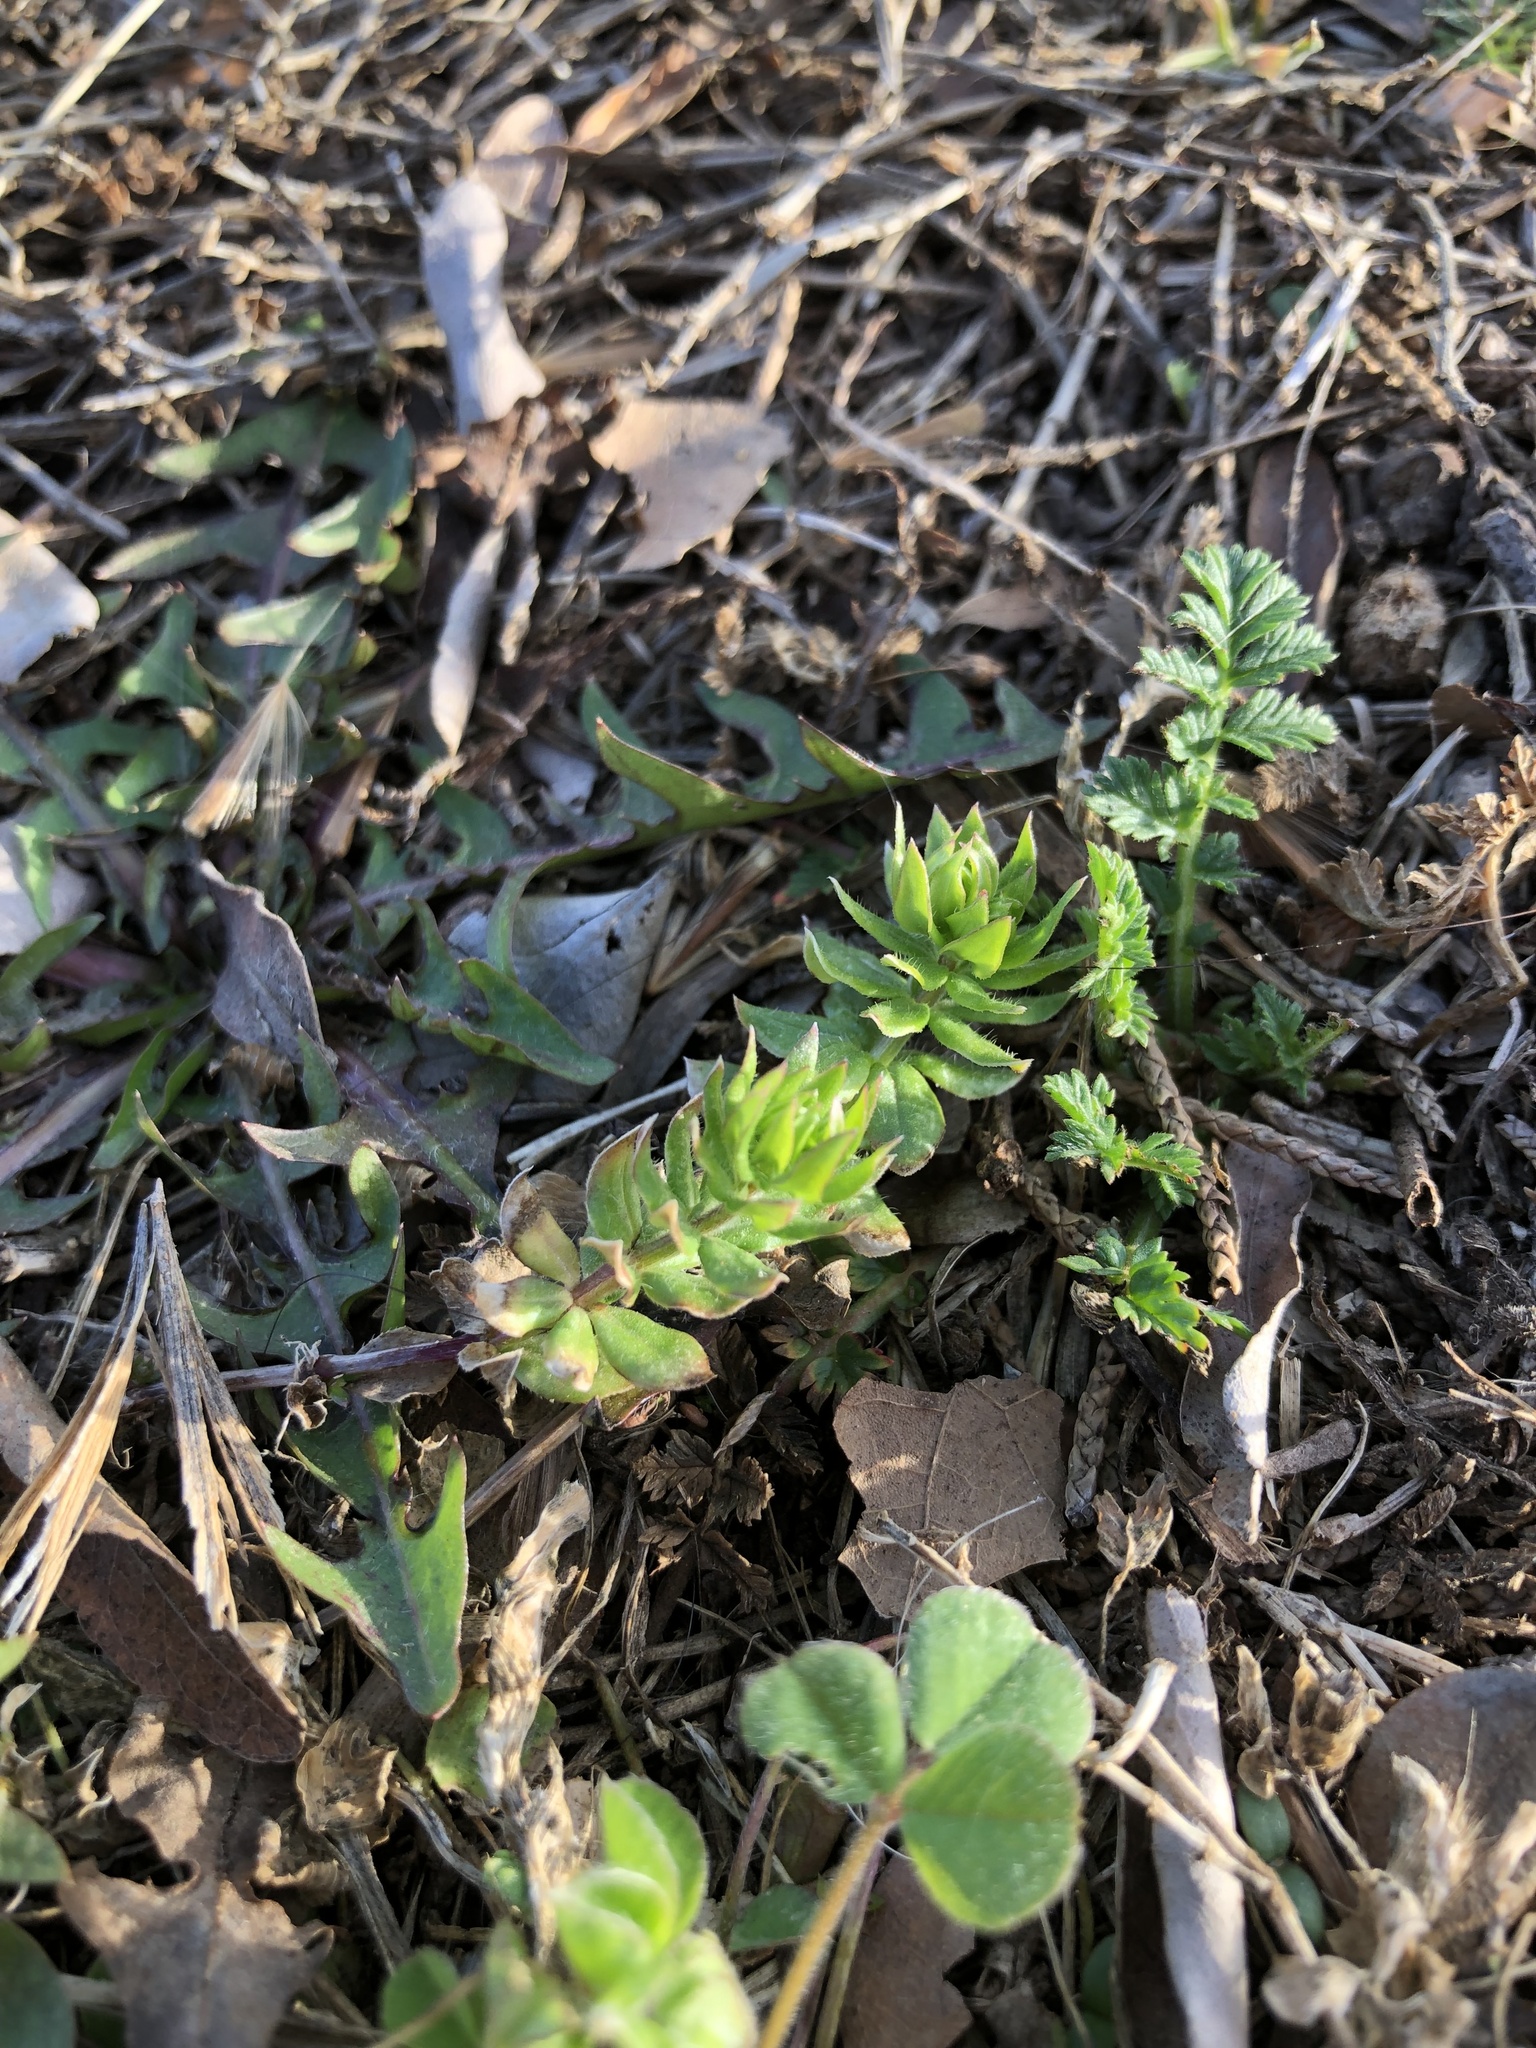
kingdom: Plantae
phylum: Tracheophyta
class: Magnoliopsida
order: Gentianales
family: Rubiaceae
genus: Sherardia
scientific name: Sherardia arvensis
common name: Field madder
